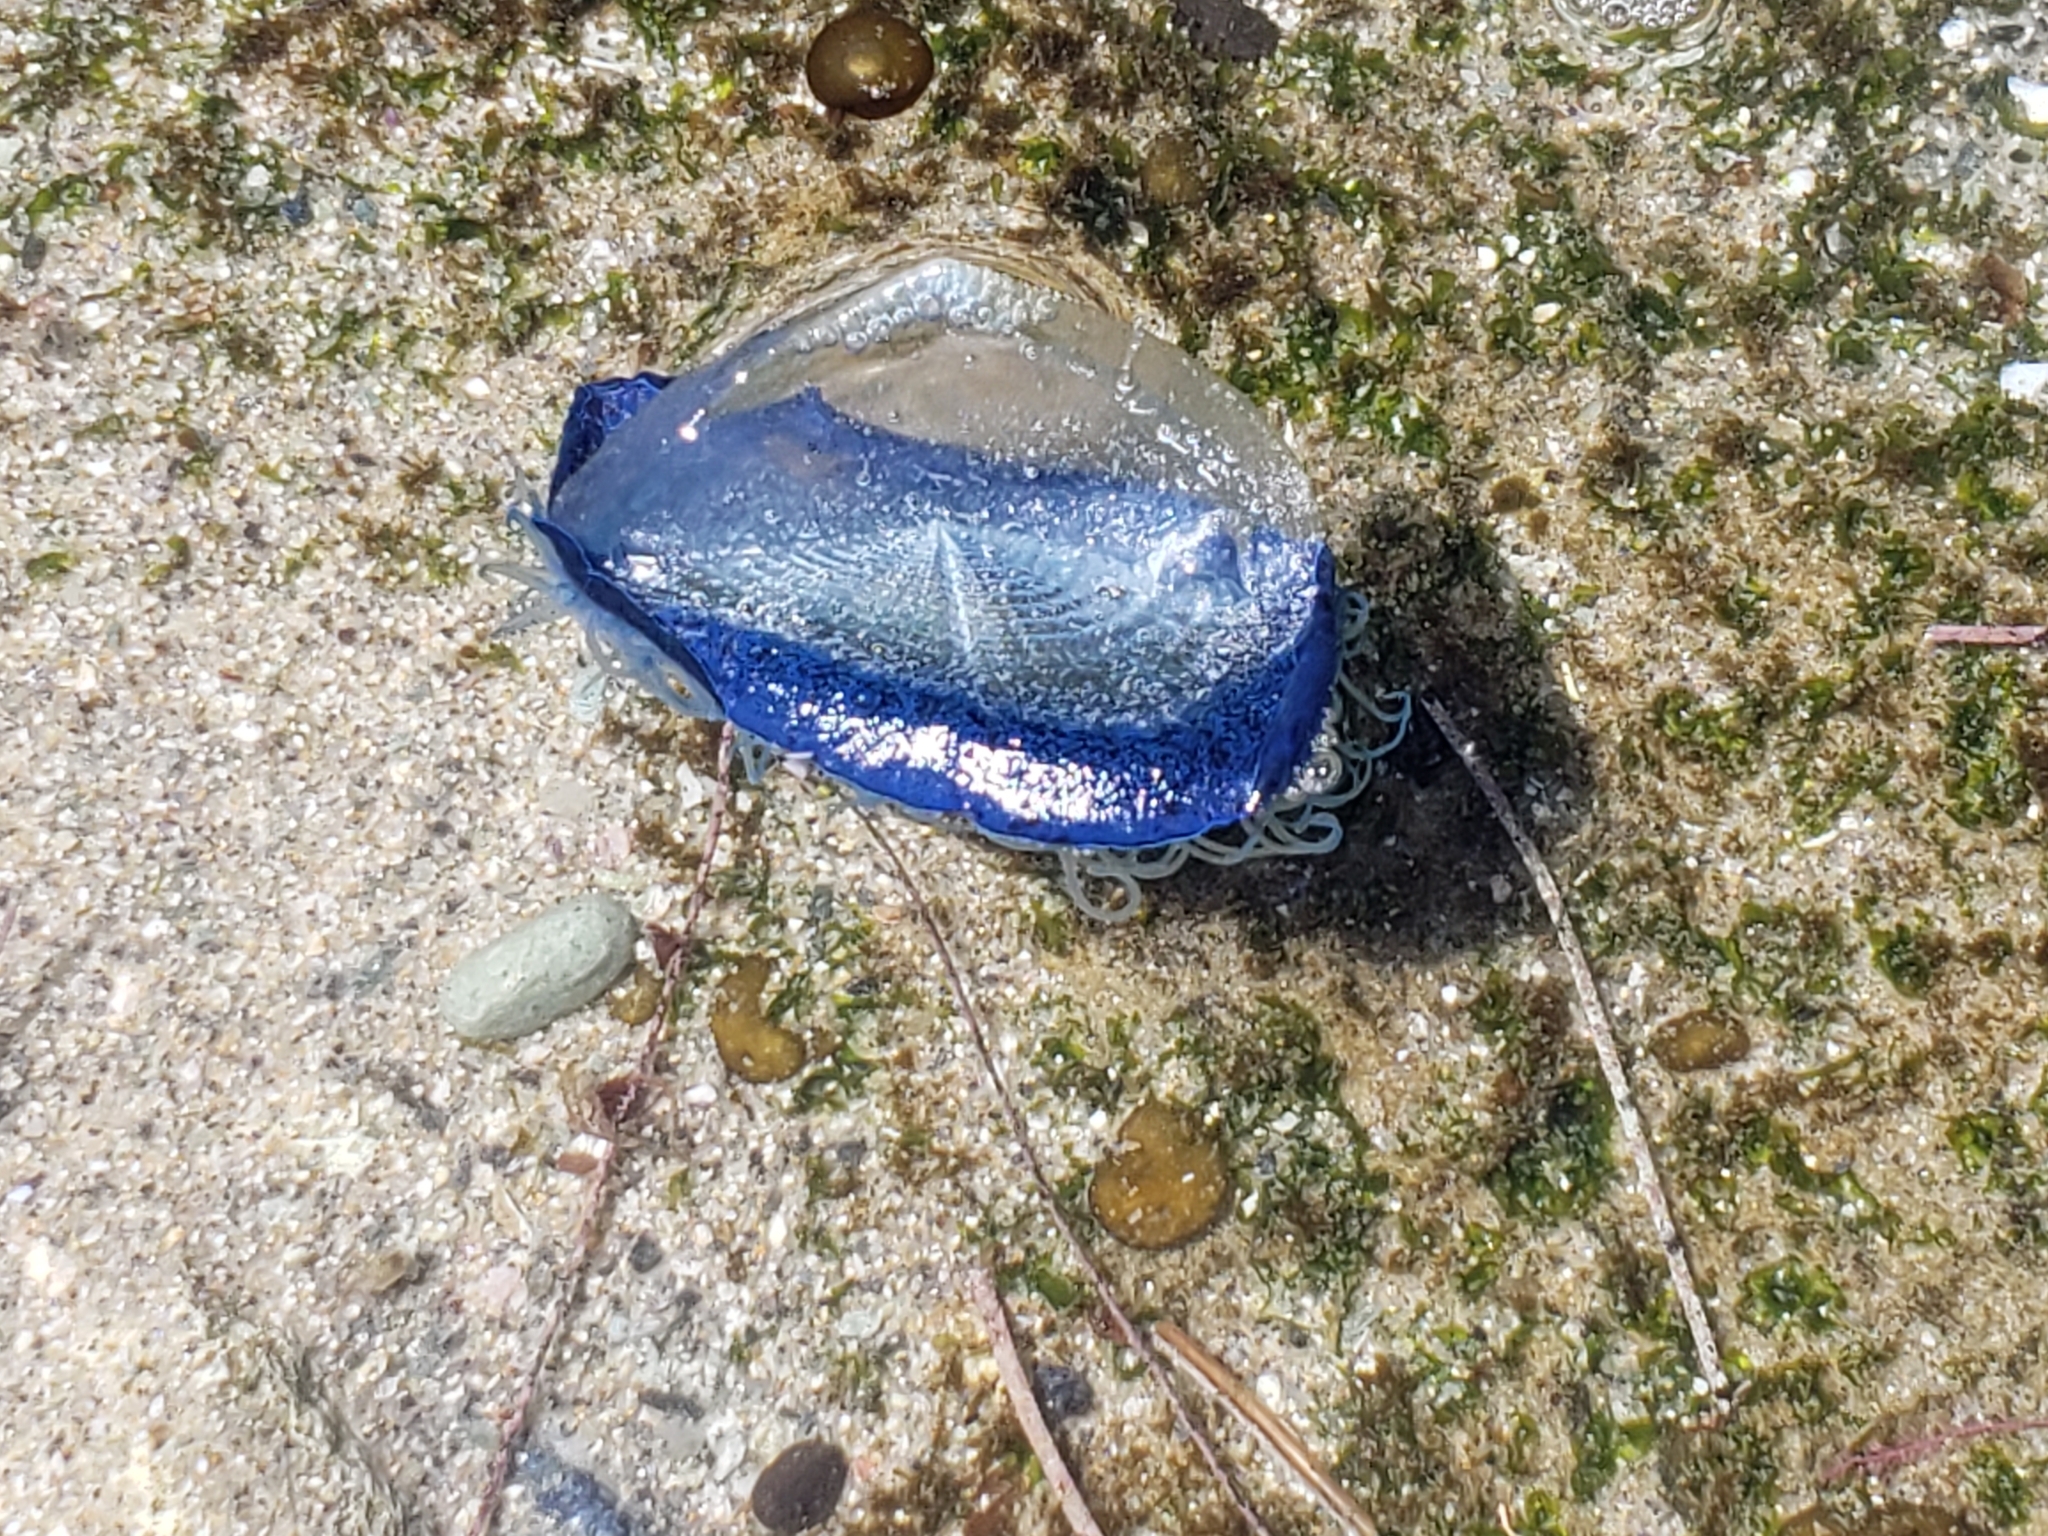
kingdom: Animalia
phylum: Cnidaria
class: Hydrozoa
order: Anthoathecata
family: Porpitidae
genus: Velella
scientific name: Velella velella
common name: By-the-wind-sailor
